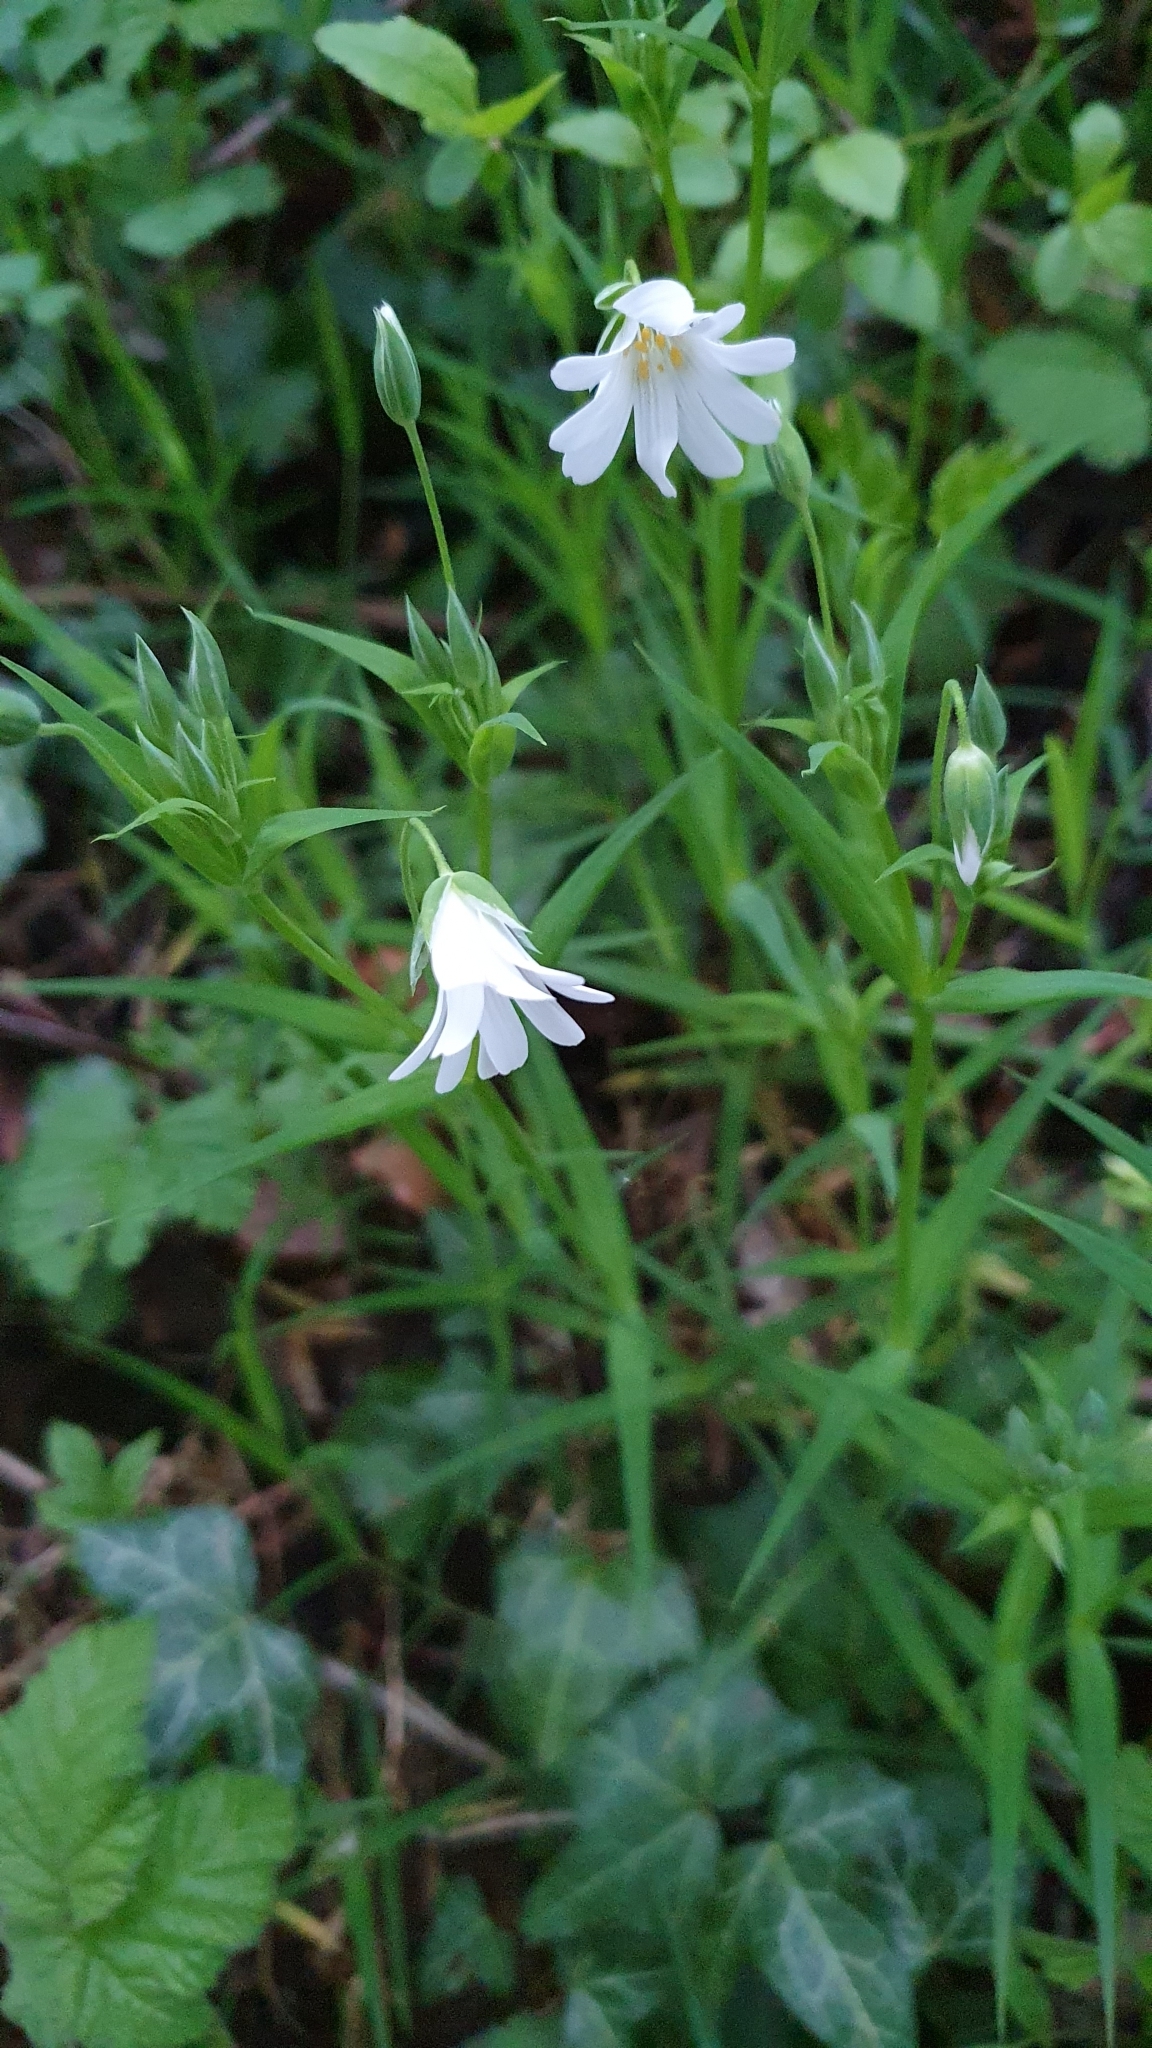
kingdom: Plantae
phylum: Tracheophyta
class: Magnoliopsida
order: Caryophyllales
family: Caryophyllaceae
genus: Rabelera
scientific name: Rabelera holostea
